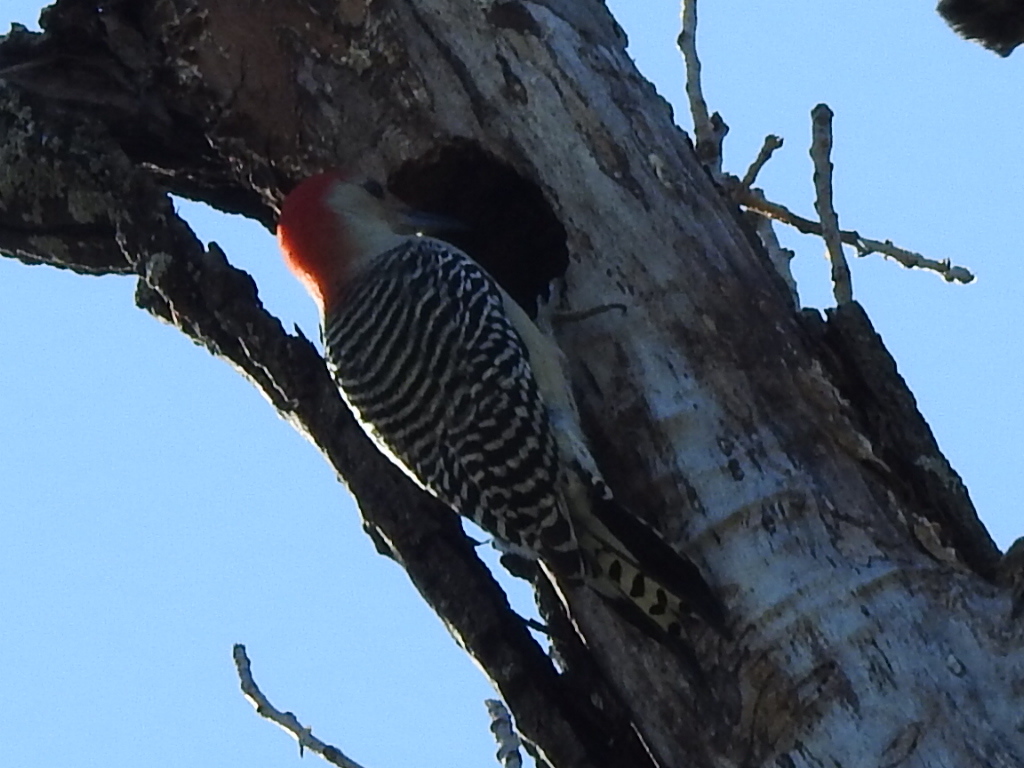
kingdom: Animalia
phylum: Chordata
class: Aves
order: Piciformes
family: Picidae
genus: Melanerpes
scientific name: Melanerpes carolinus
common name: Red-bellied woodpecker
